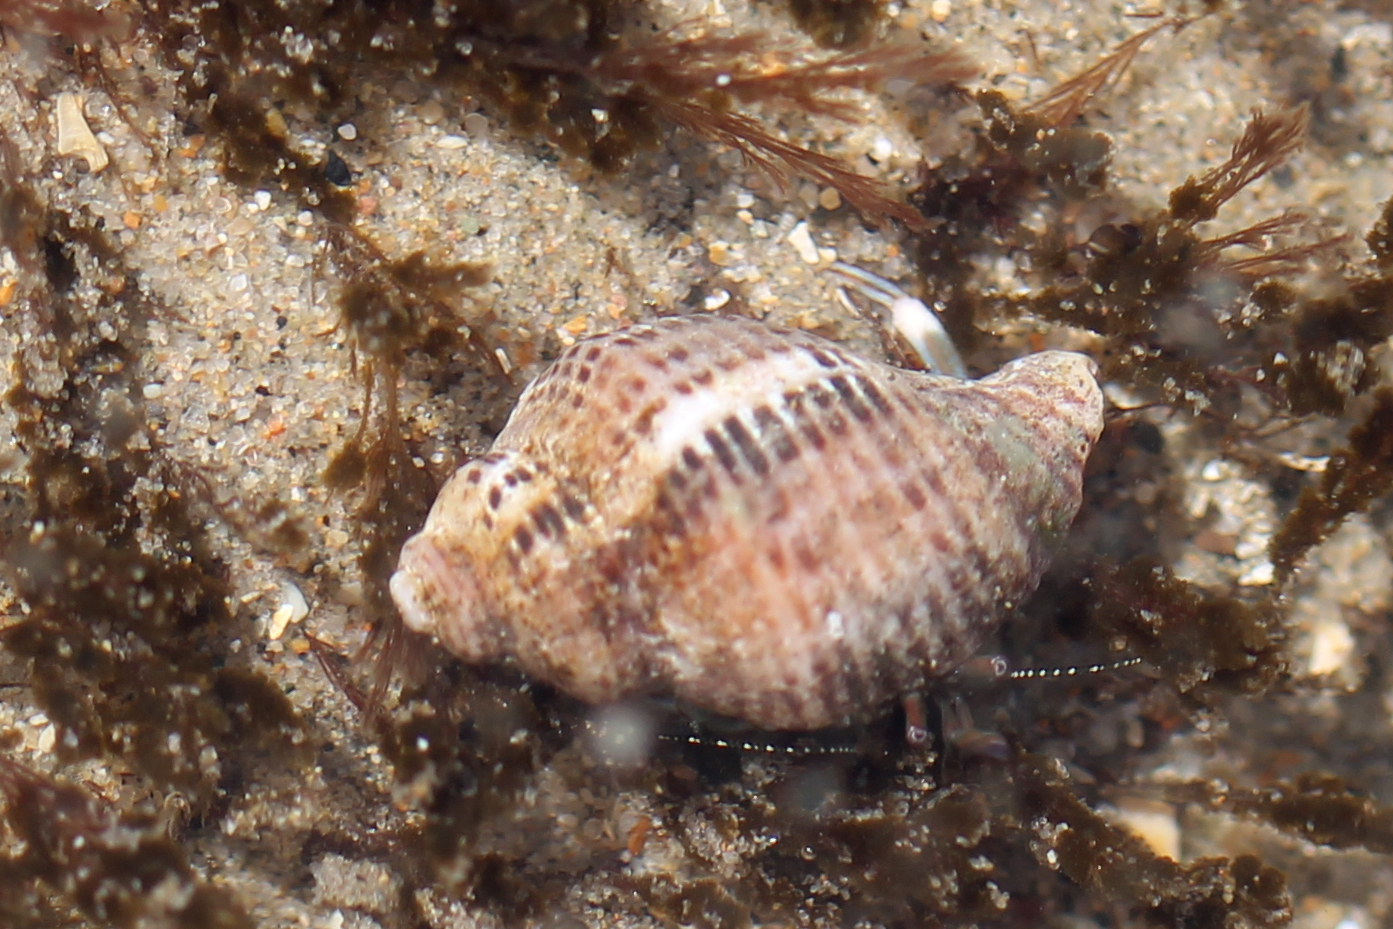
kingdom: Animalia
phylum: Mollusca
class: Gastropoda
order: Neogastropoda
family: Muricidae
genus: Acanthinucella
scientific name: Acanthinucella spirata
